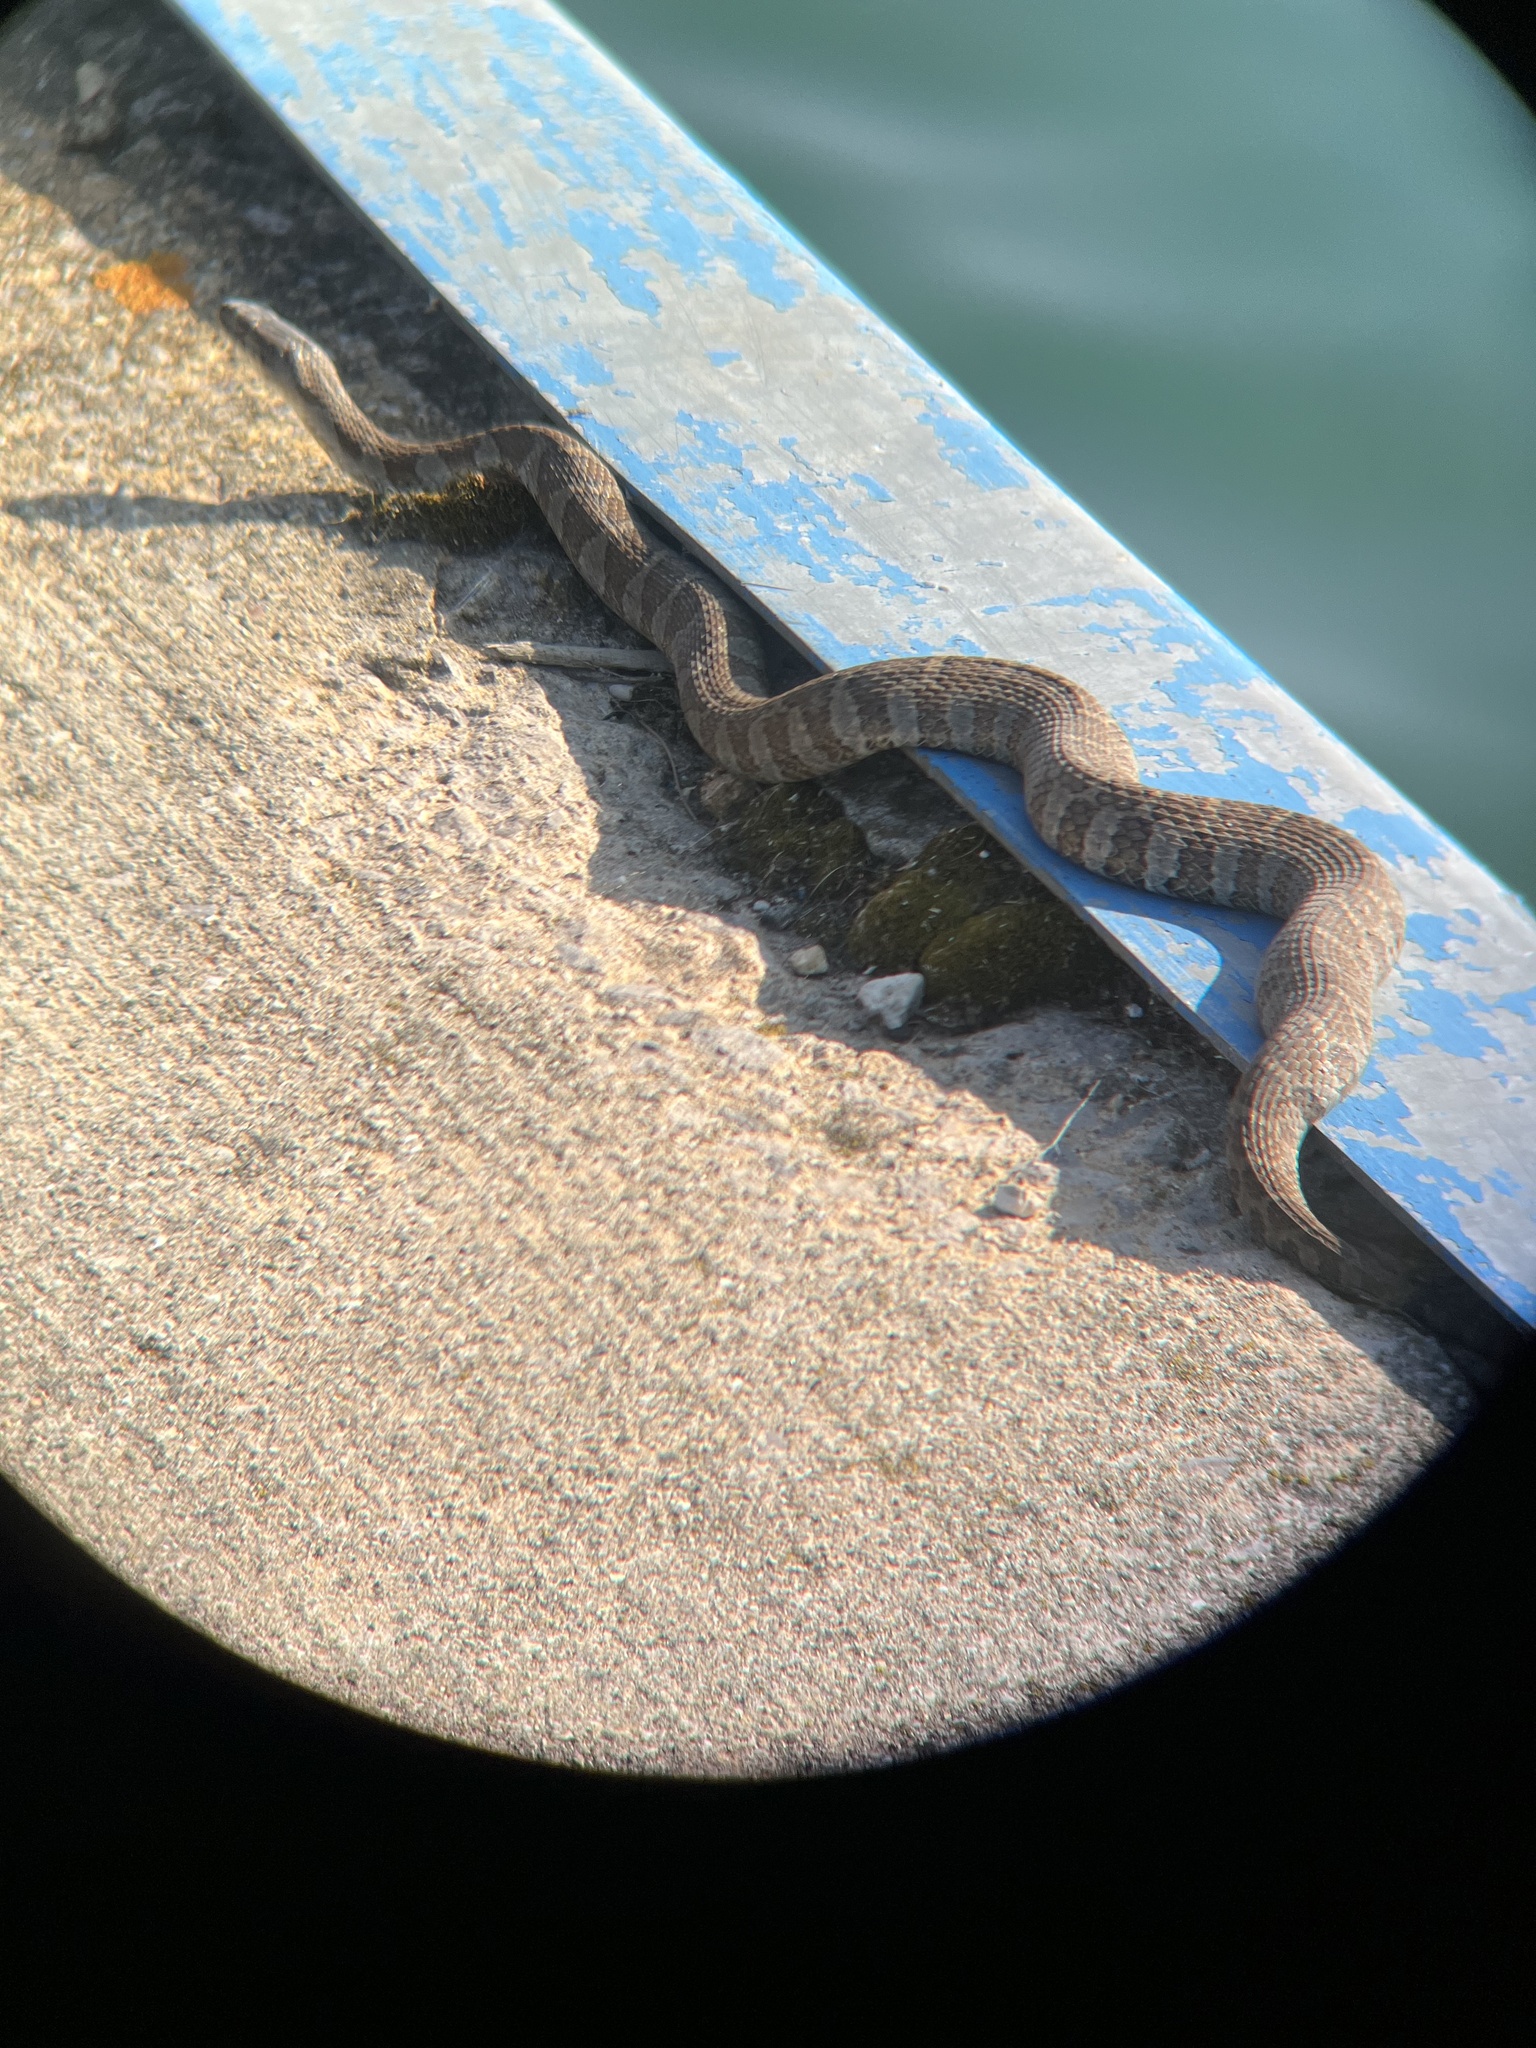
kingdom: Animalia
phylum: Chordata
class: Squamata
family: Colubridae
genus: Nerodia
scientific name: Nerodia sipedon
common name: Northern water snake
